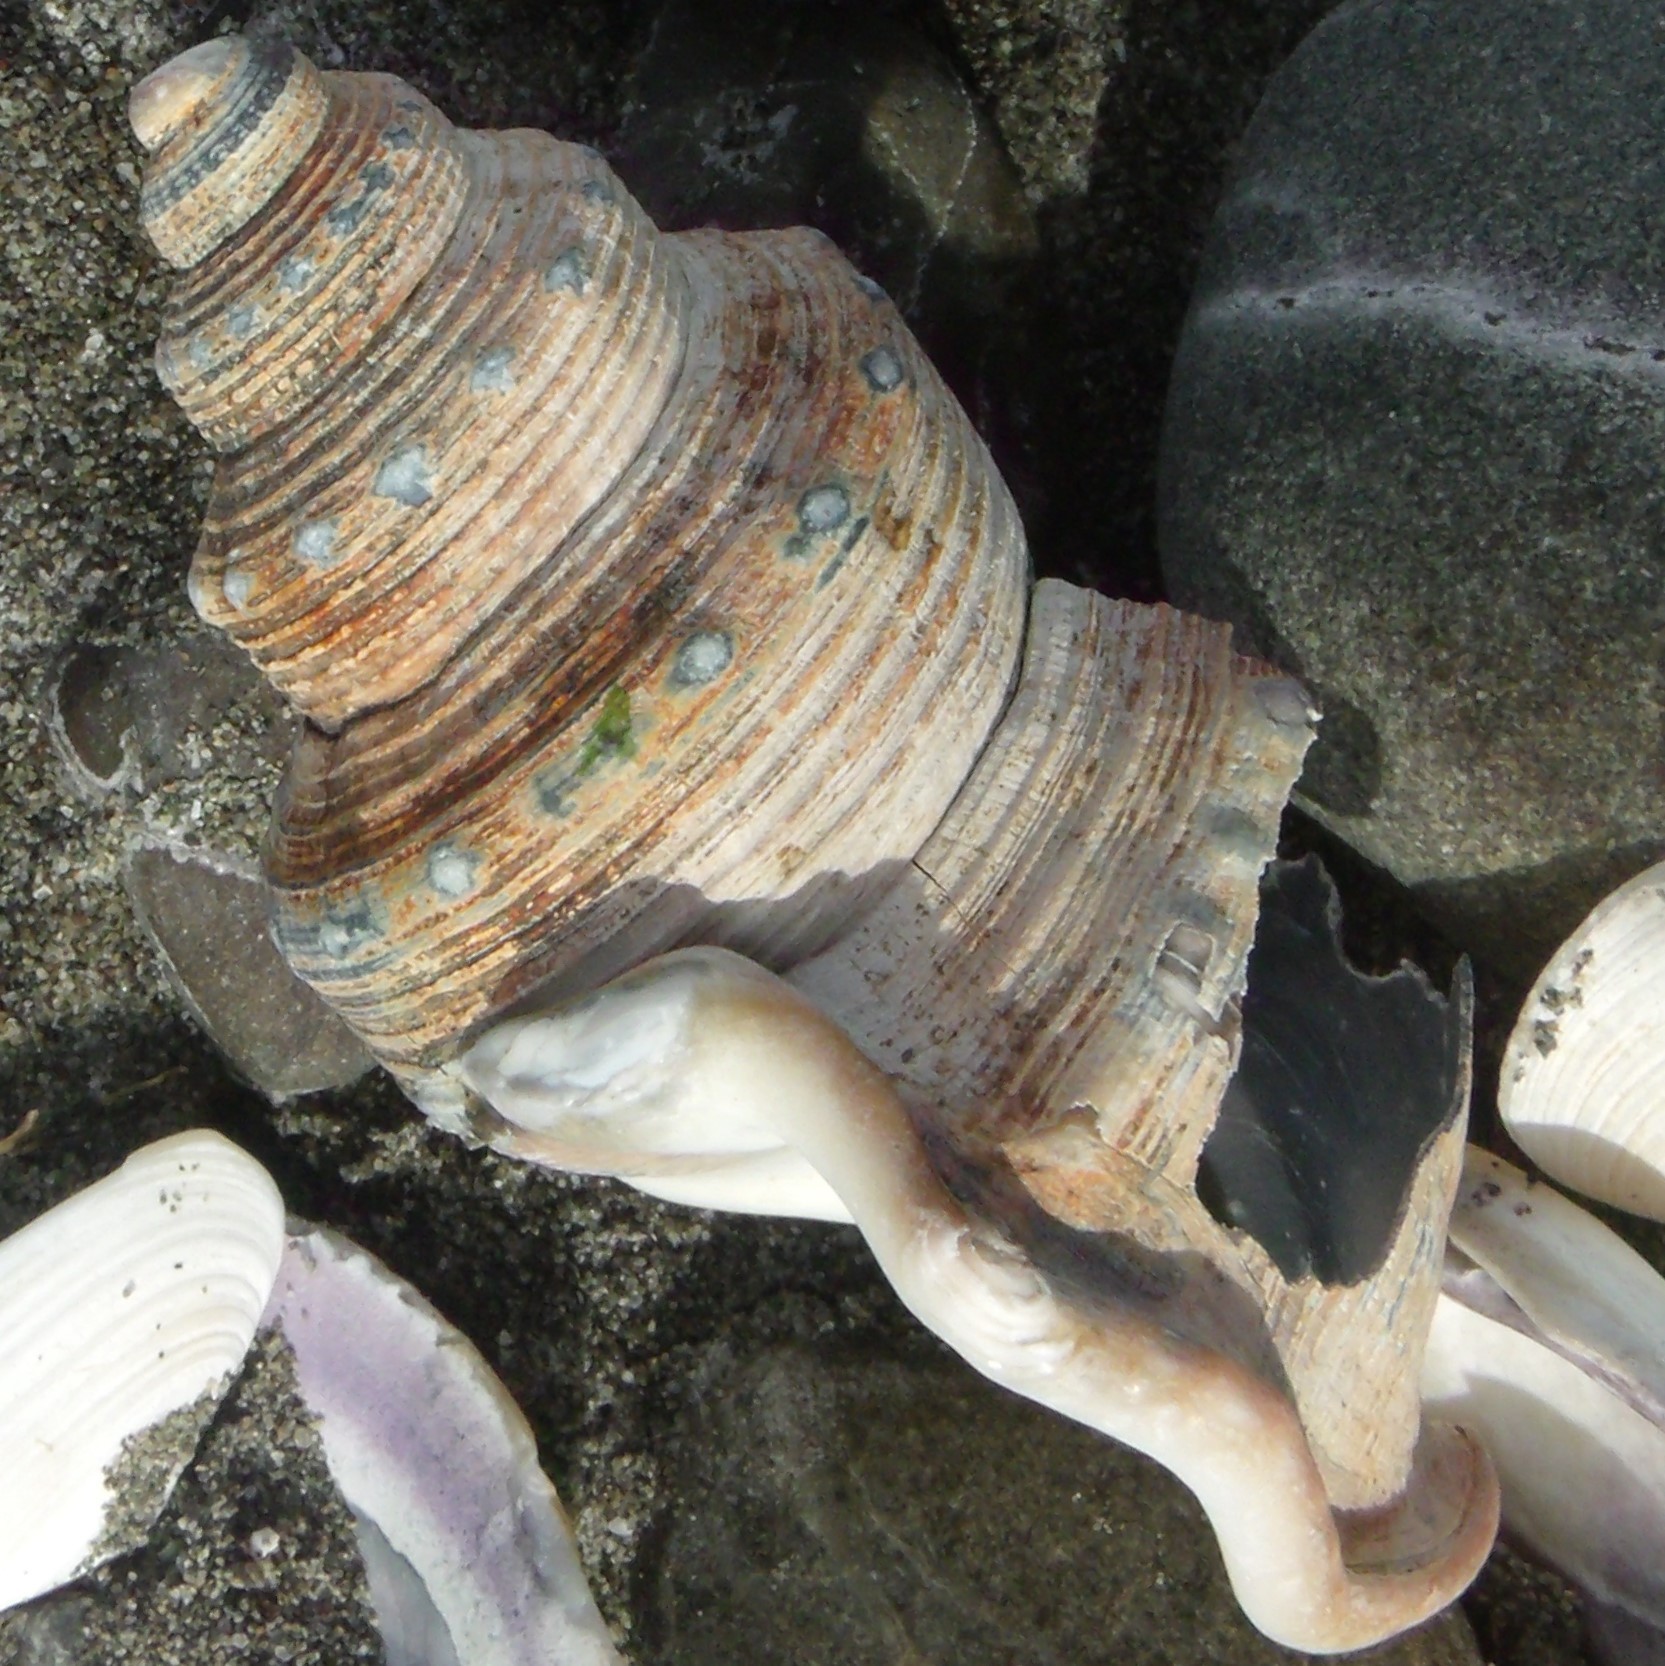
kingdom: Animalia
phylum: Mollusca
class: Gastropoda
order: Littorinimorpha
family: Struthiolariidae
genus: Struthiolaria
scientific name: Struthiolaria papulosa
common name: Large ostrich foot
